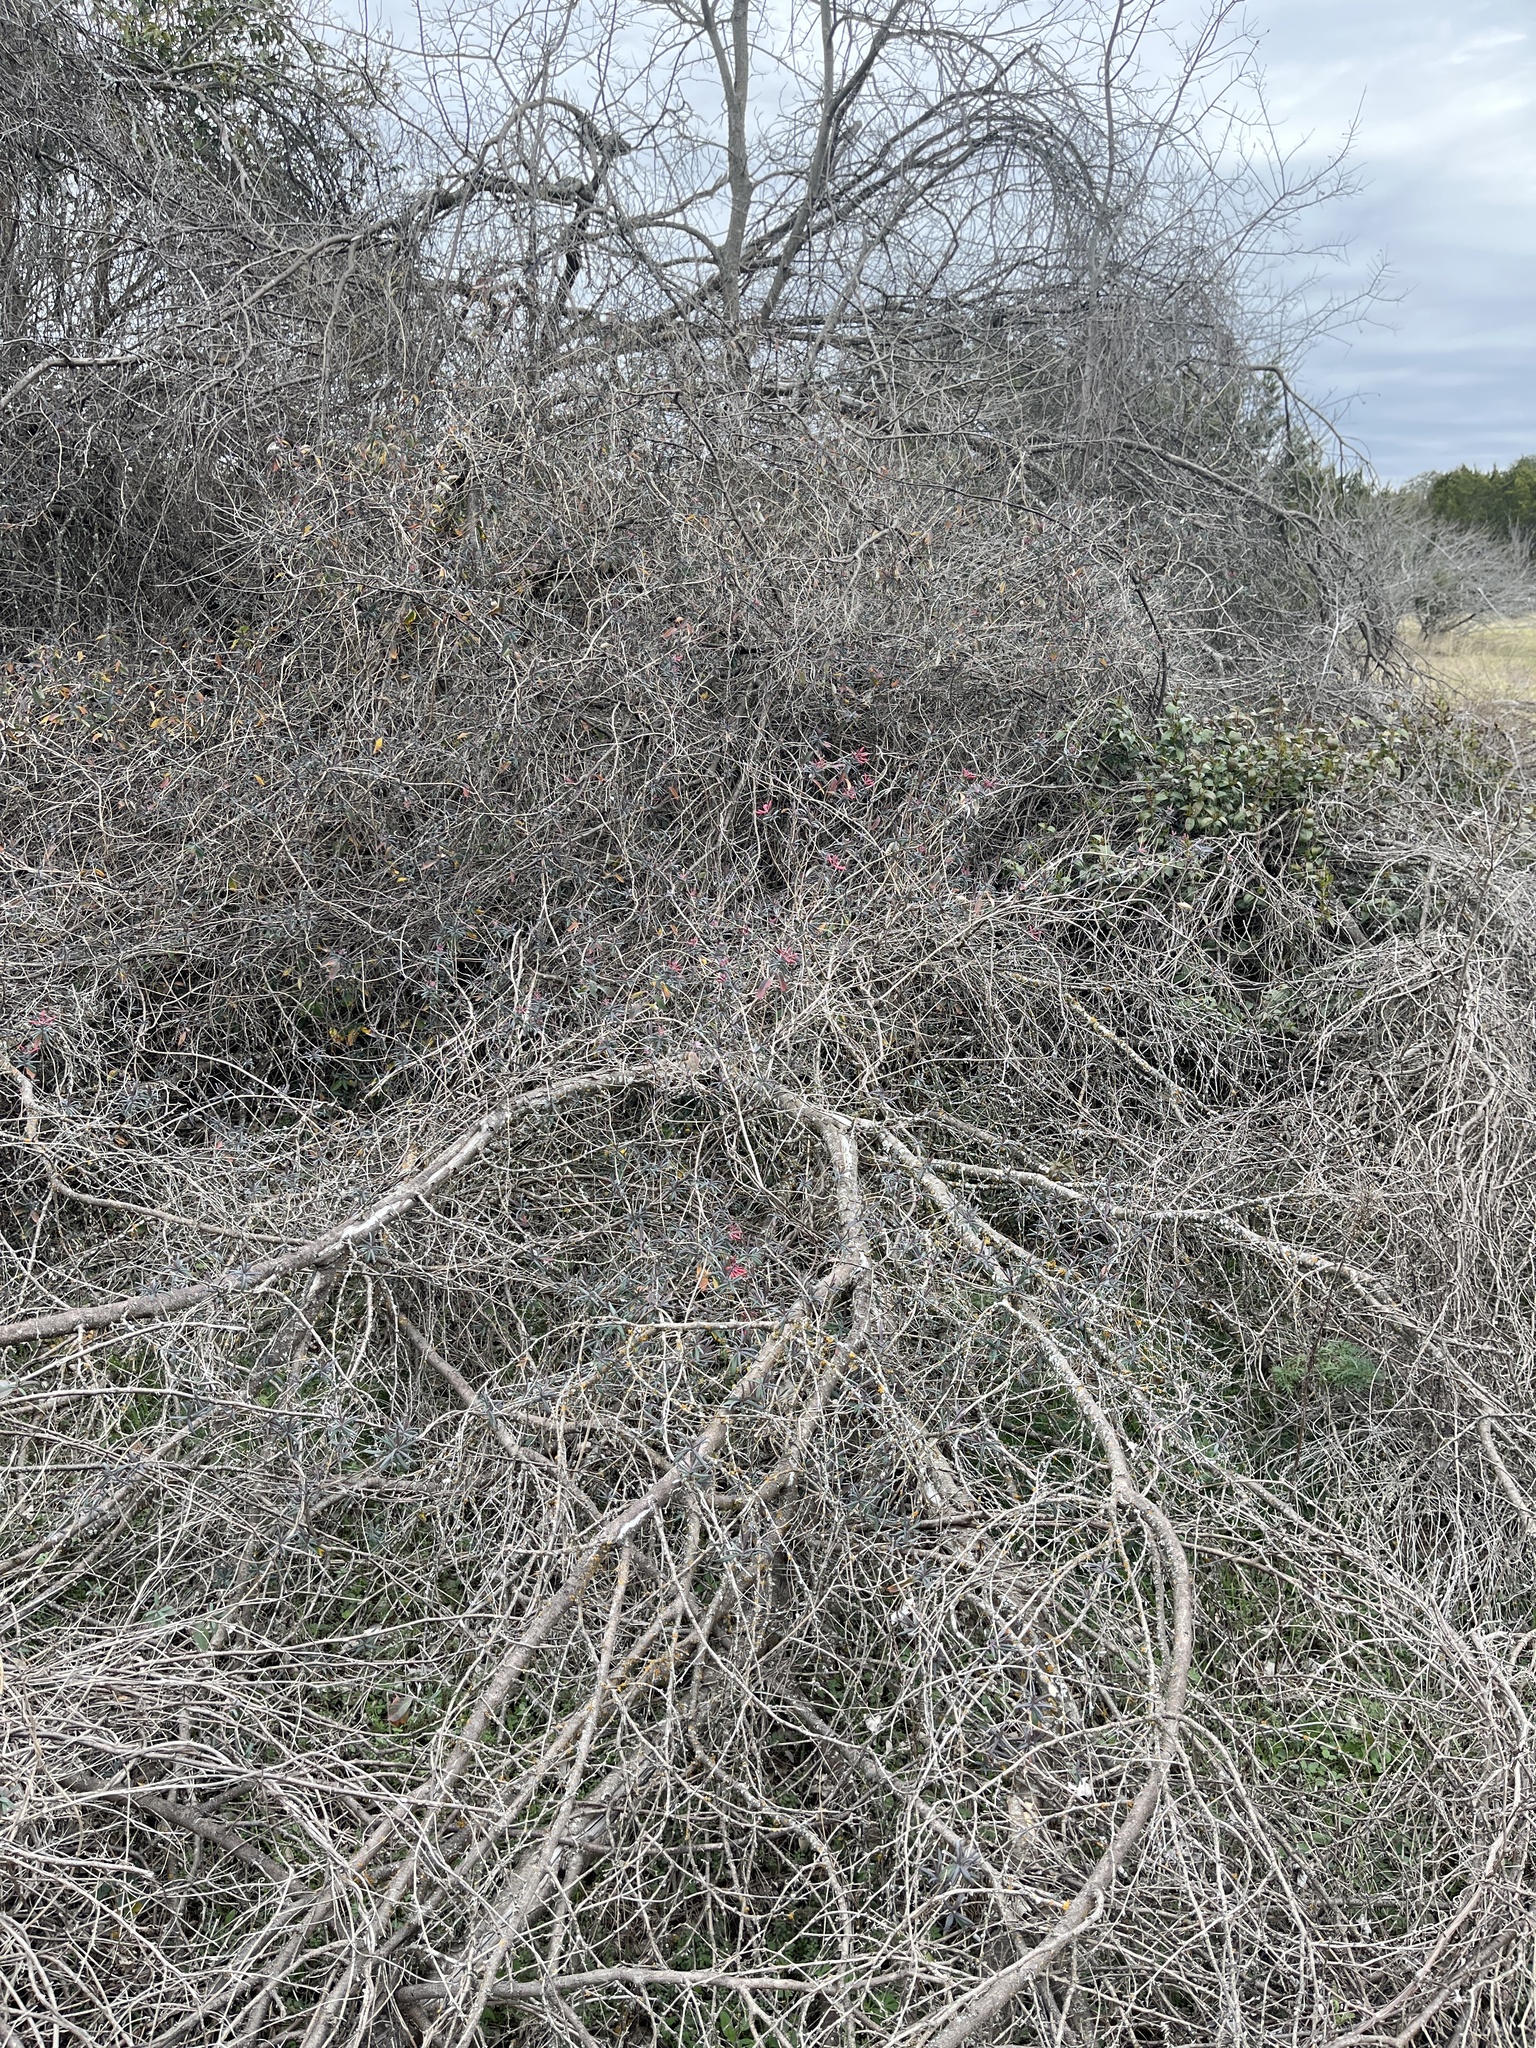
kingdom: Plantae
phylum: Tracheophyta
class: Magnoliopsida
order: Dipsacales
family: Caprifoliaceae
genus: Lonicera
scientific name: Lonicera sempervirens
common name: Coral honeysuckle
